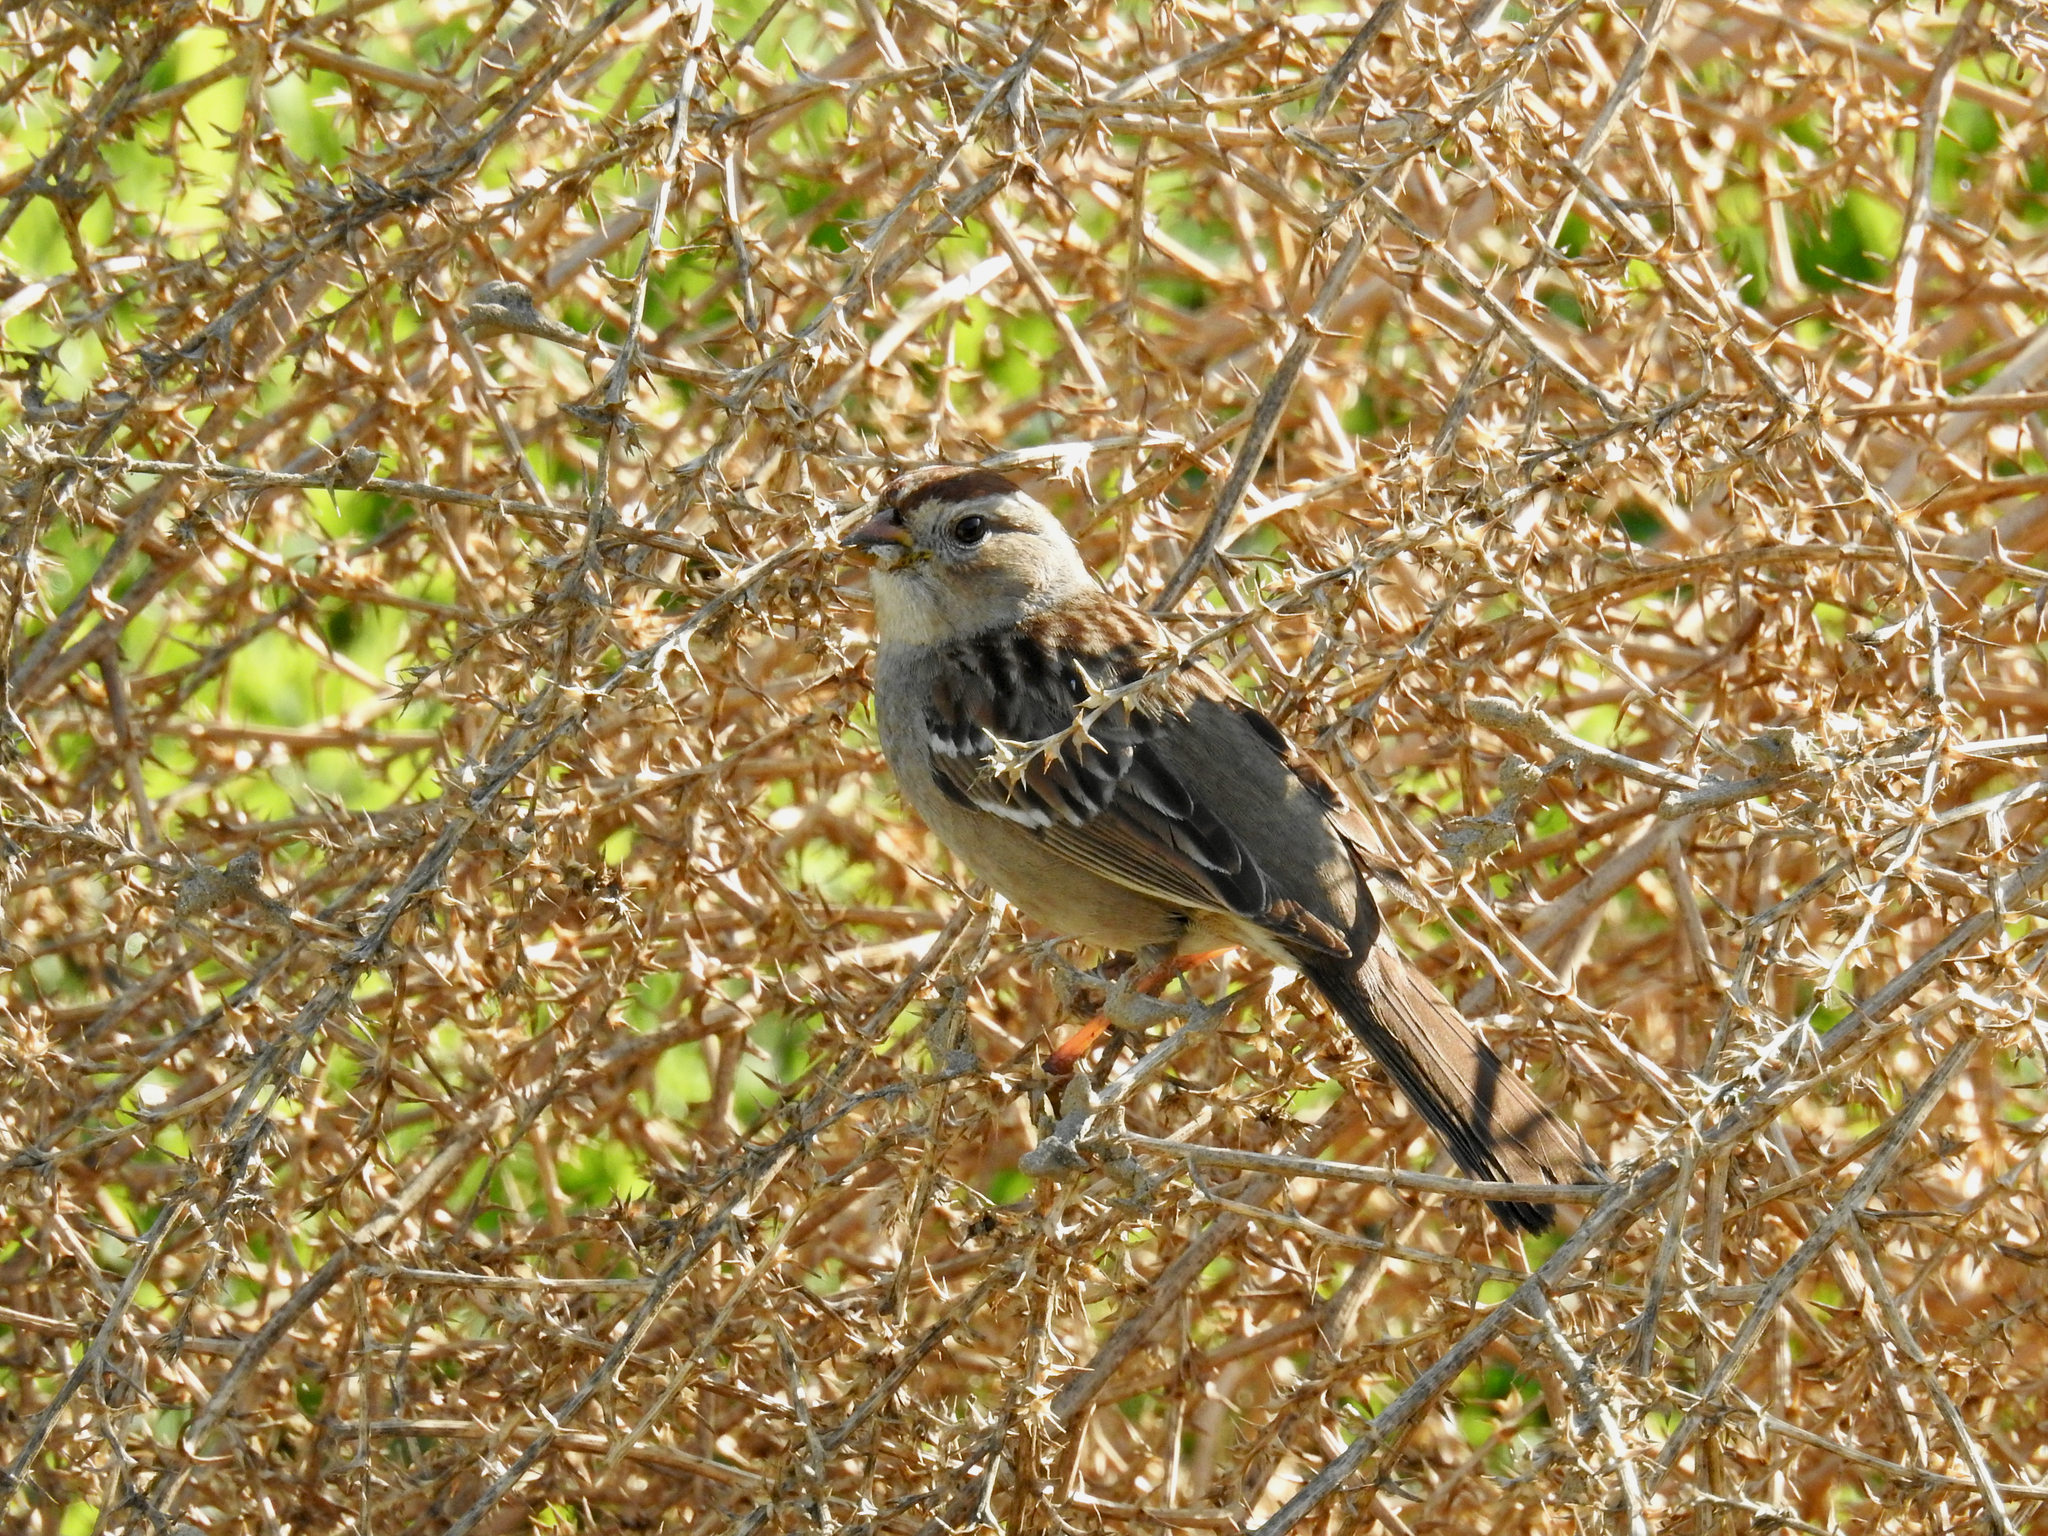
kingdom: Animalia
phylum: Chordata
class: Aves
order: Passeriformes
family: Passerellidae
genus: Zonotrichia
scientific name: Zonotrichia leucophrys
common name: White-crowned sparrow
